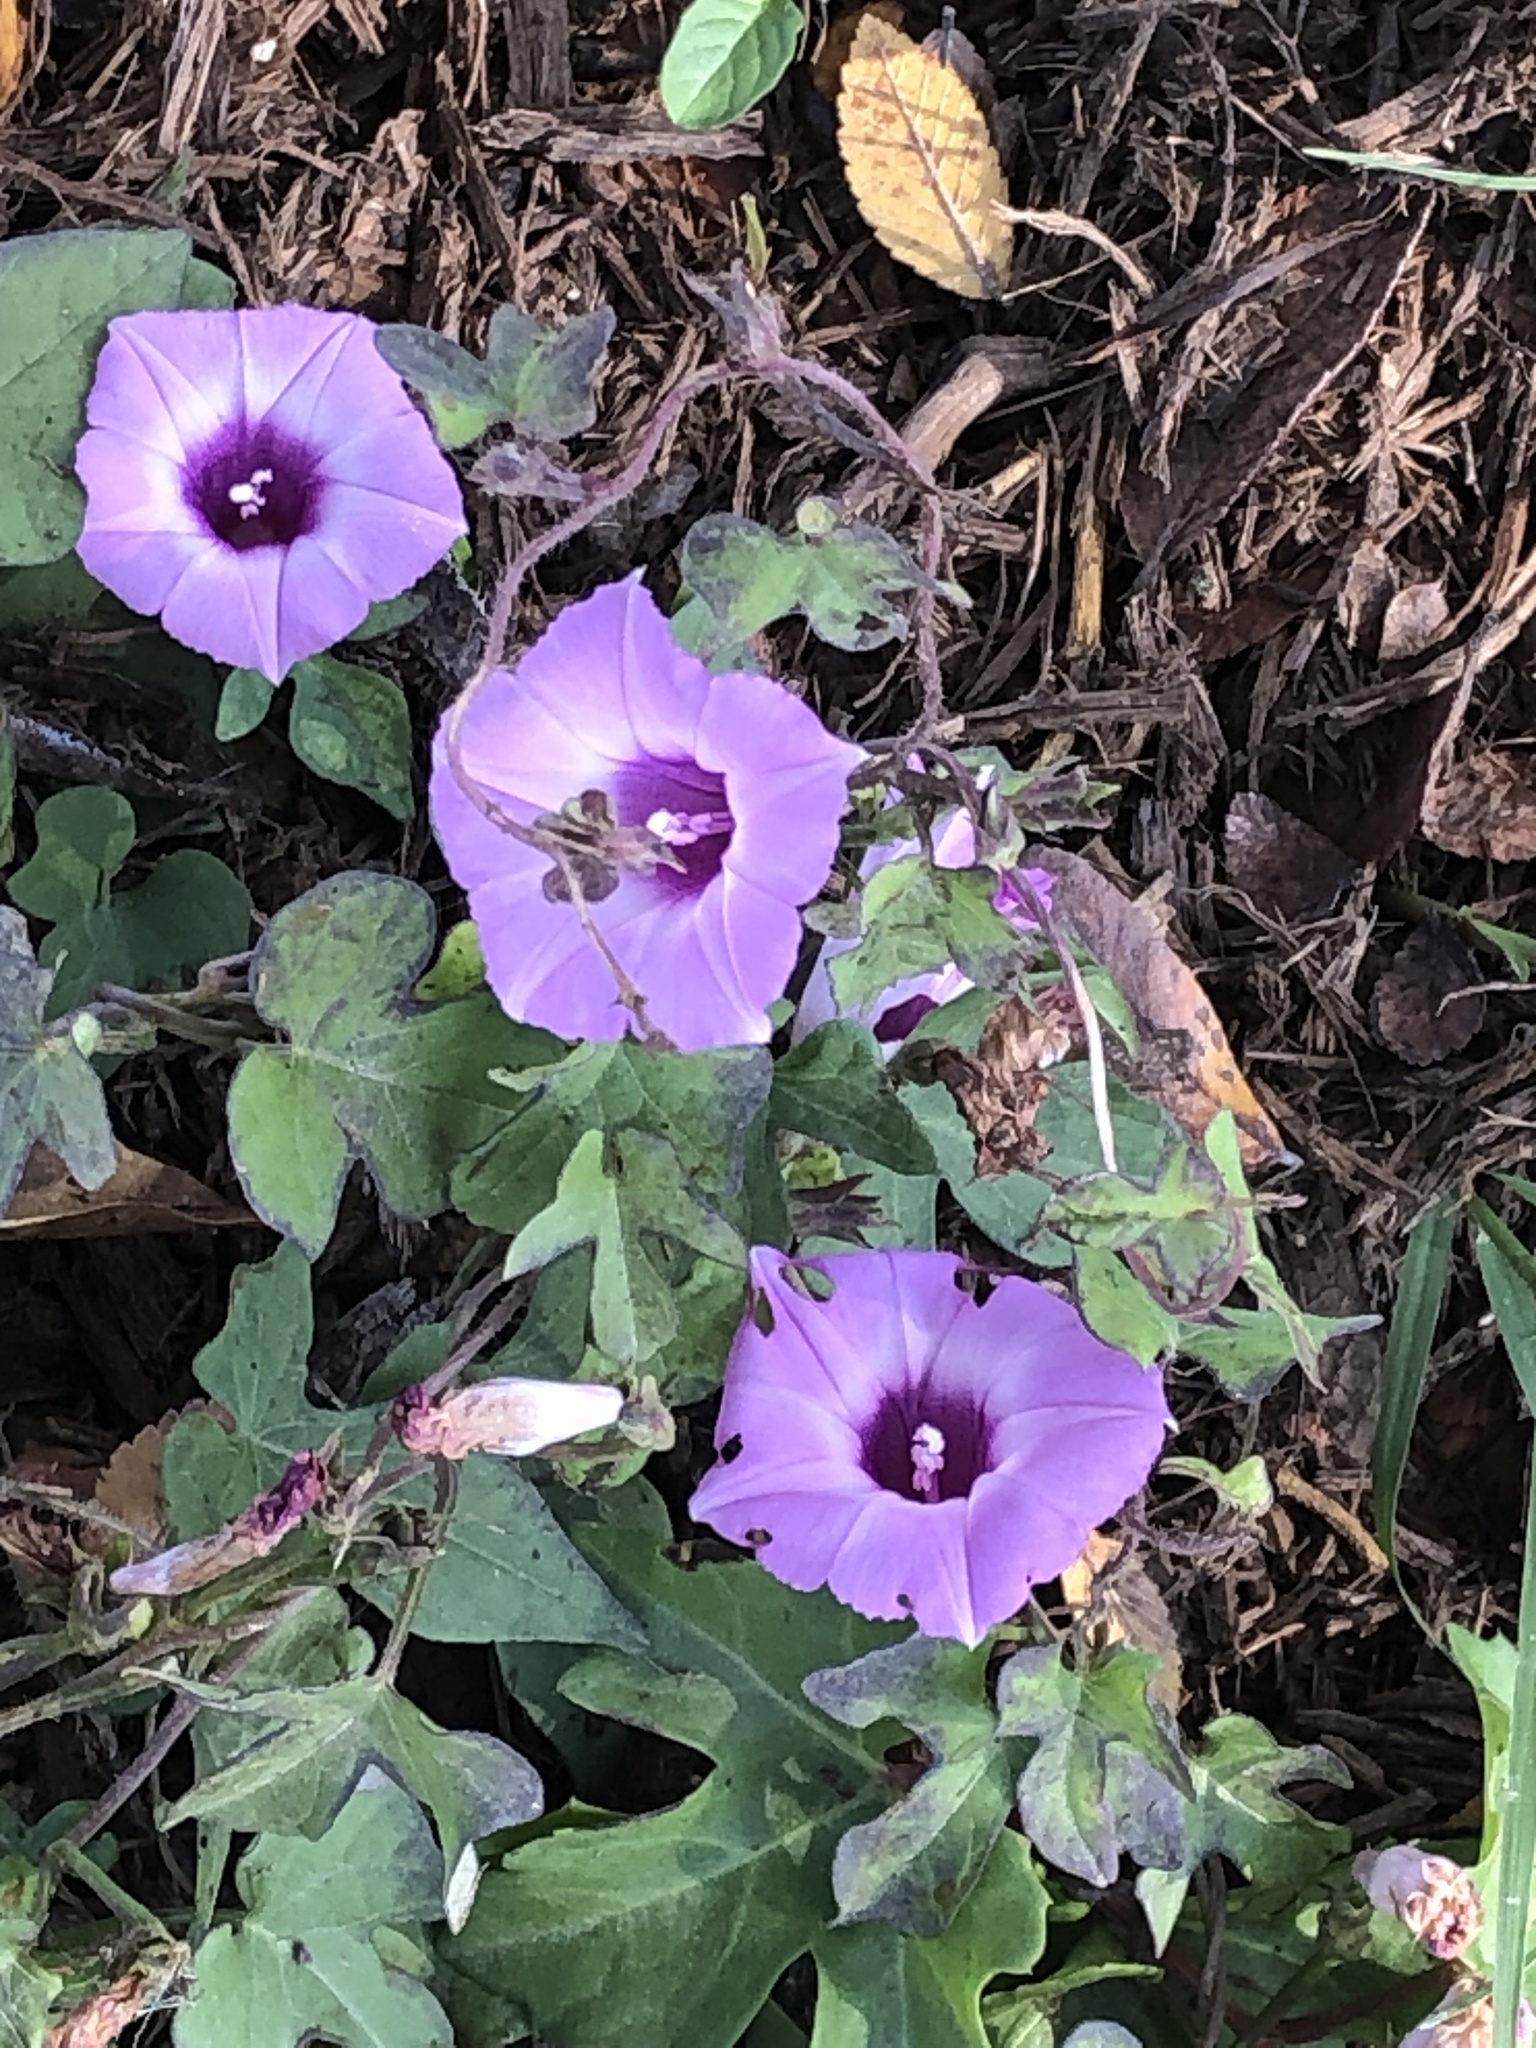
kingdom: Plantae
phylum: Tracheophyta
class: Magnoliopsida
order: Solanales
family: Convolvulaceae
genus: Ipomoea
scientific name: Ipomoea cordatotriloba
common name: Cotton morning glory
